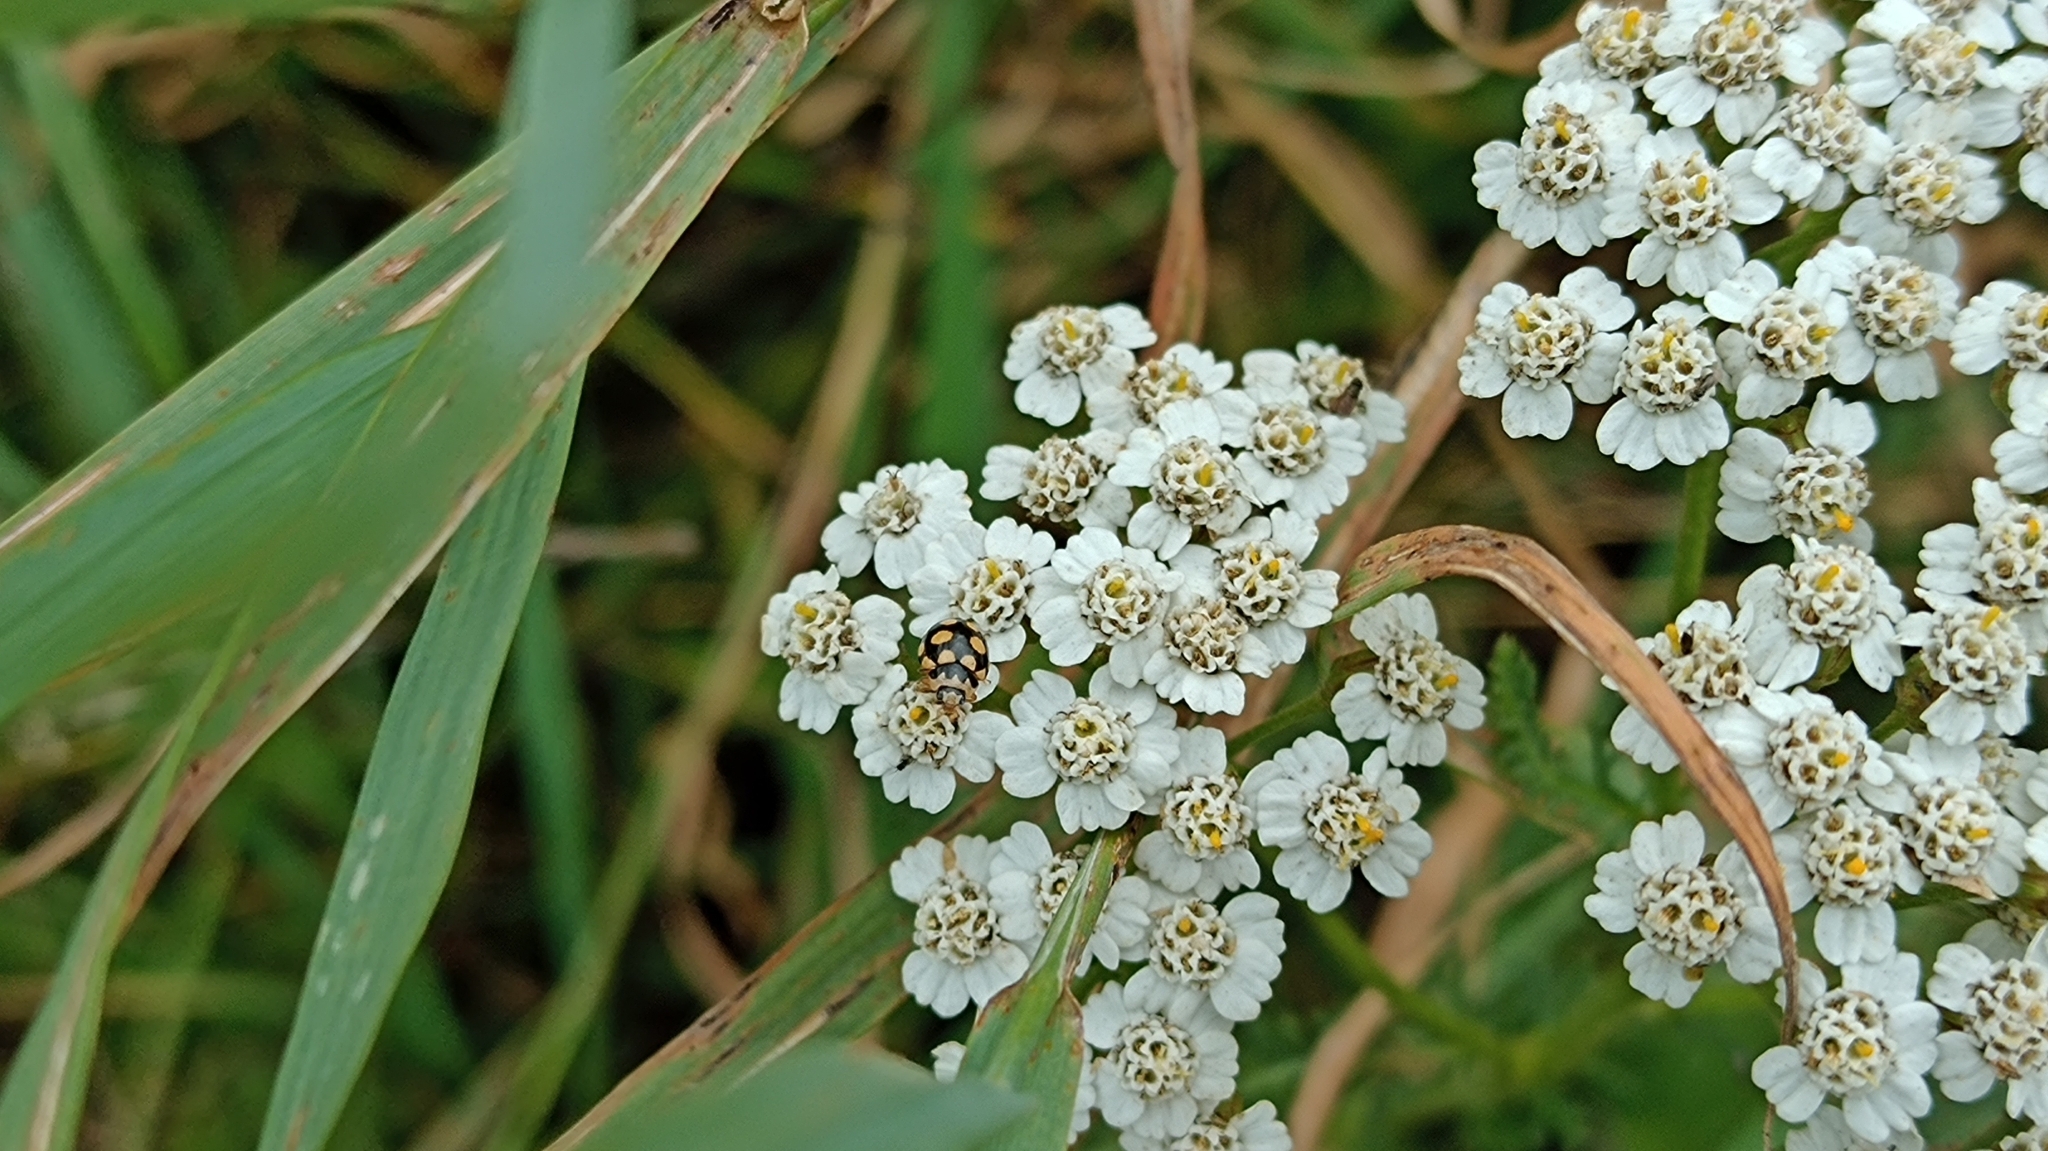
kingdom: Animalia
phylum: Arthropoda
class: Insecta
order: Coleoptera
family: Coccinellidae
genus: Coccinula
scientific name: Coccinula quatuordecimpustulata
